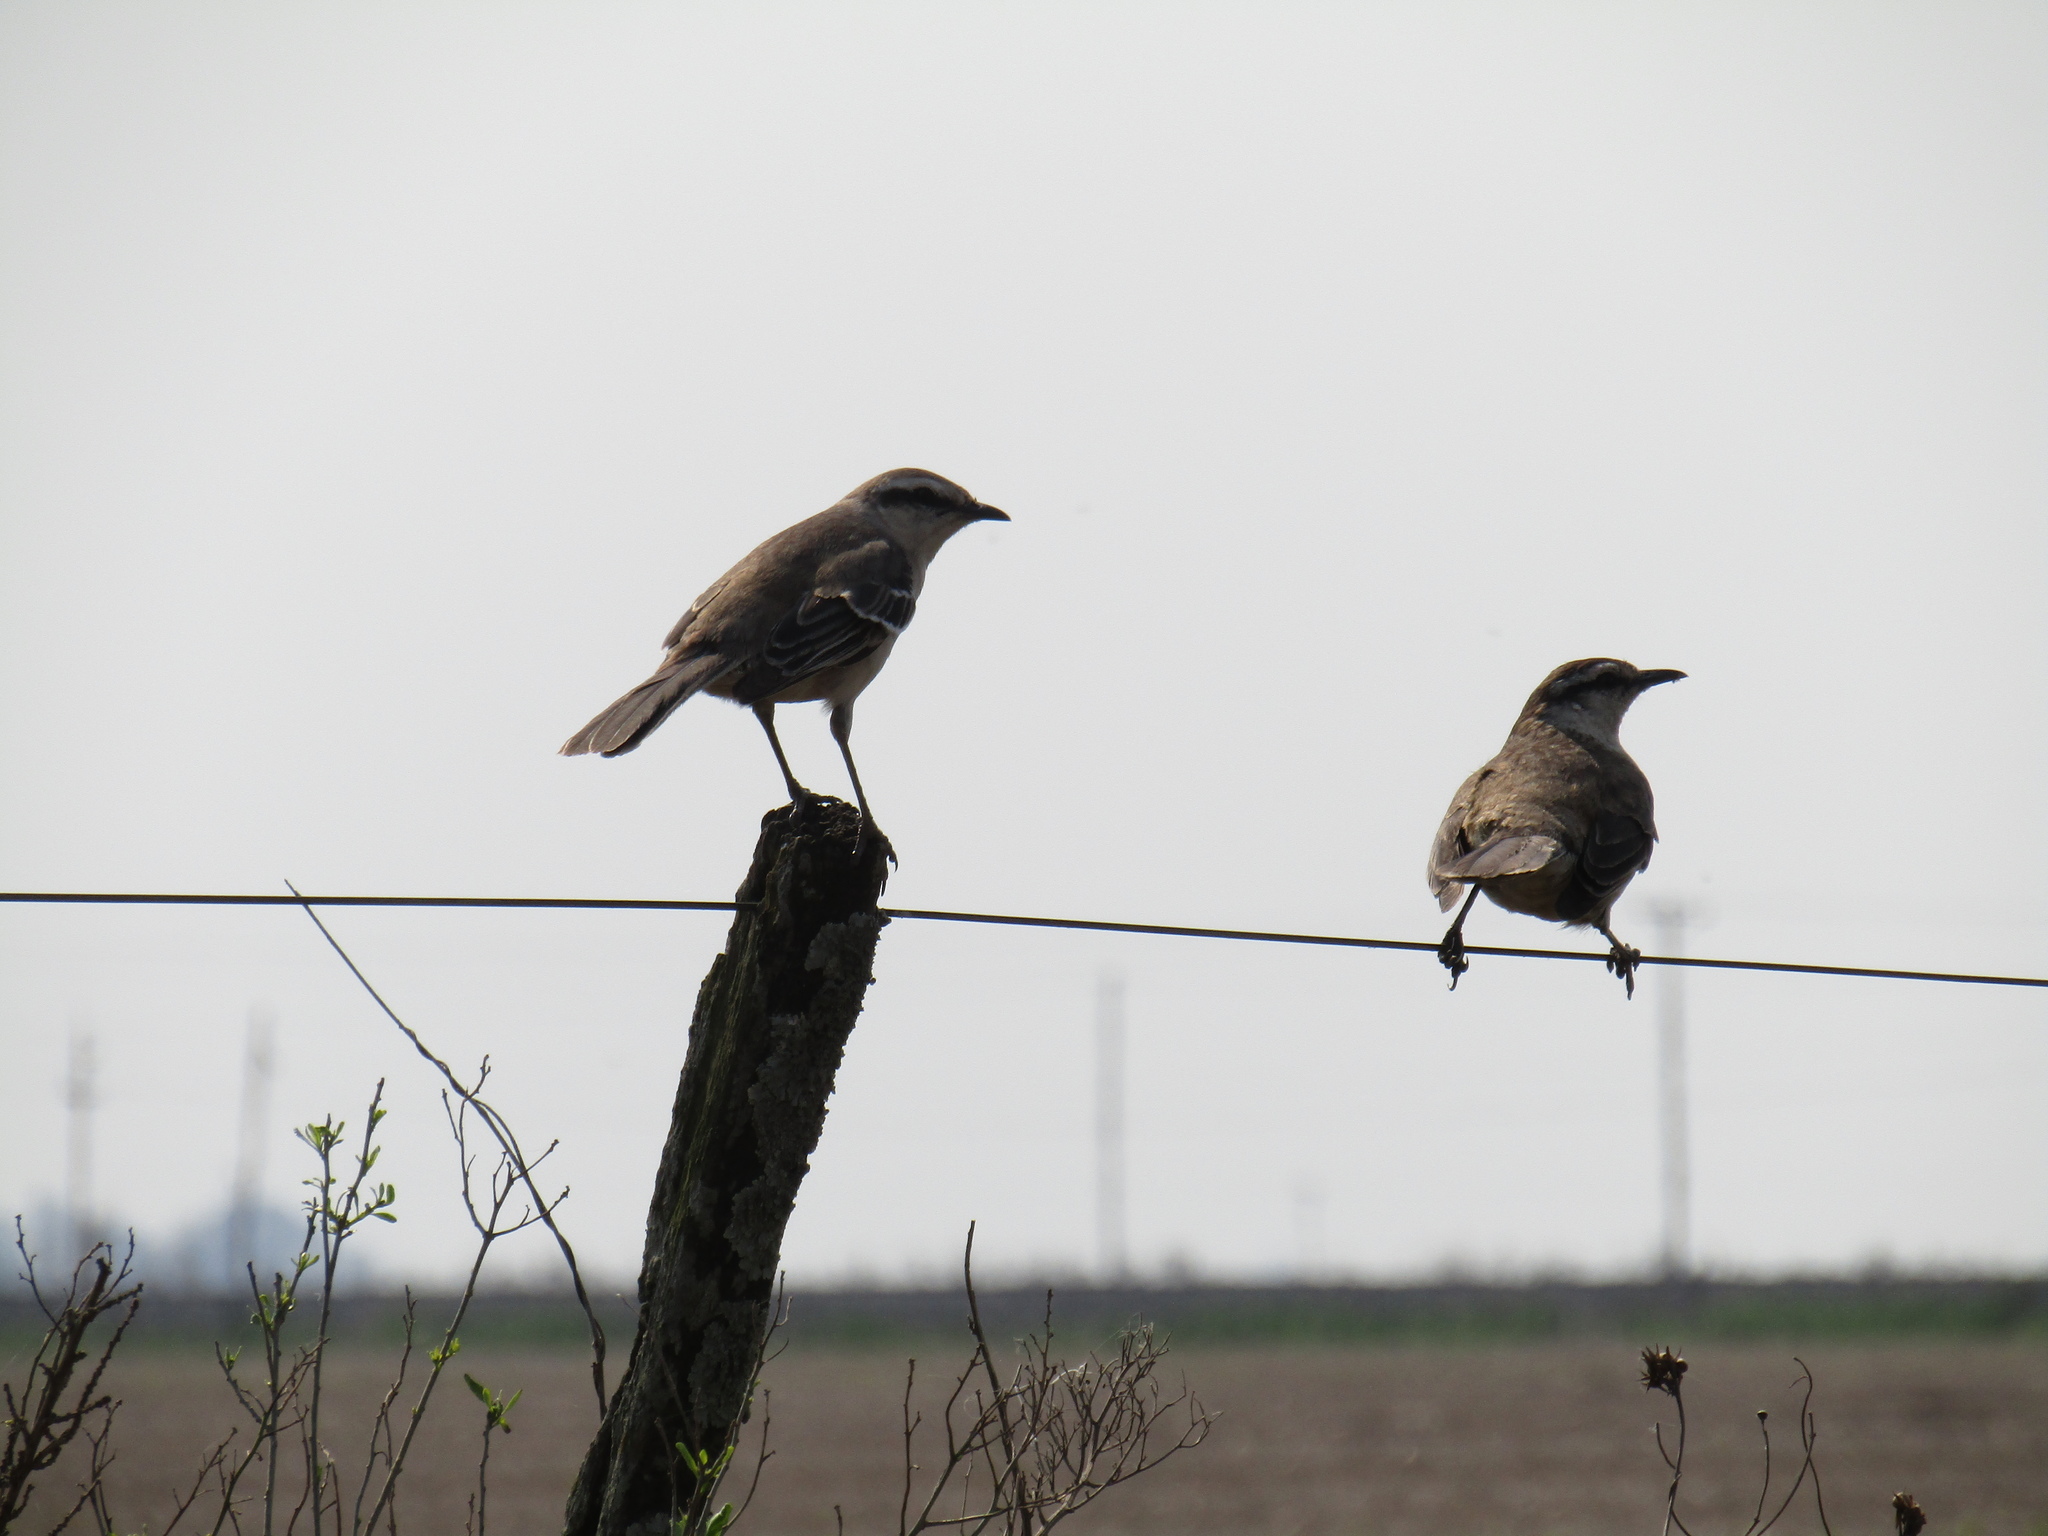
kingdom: Animalia
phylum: Chordata
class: Aves
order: Passeriformes
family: Mimidae
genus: Mimus
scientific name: Mimus saturninus
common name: Chalk-browed mockingbird
